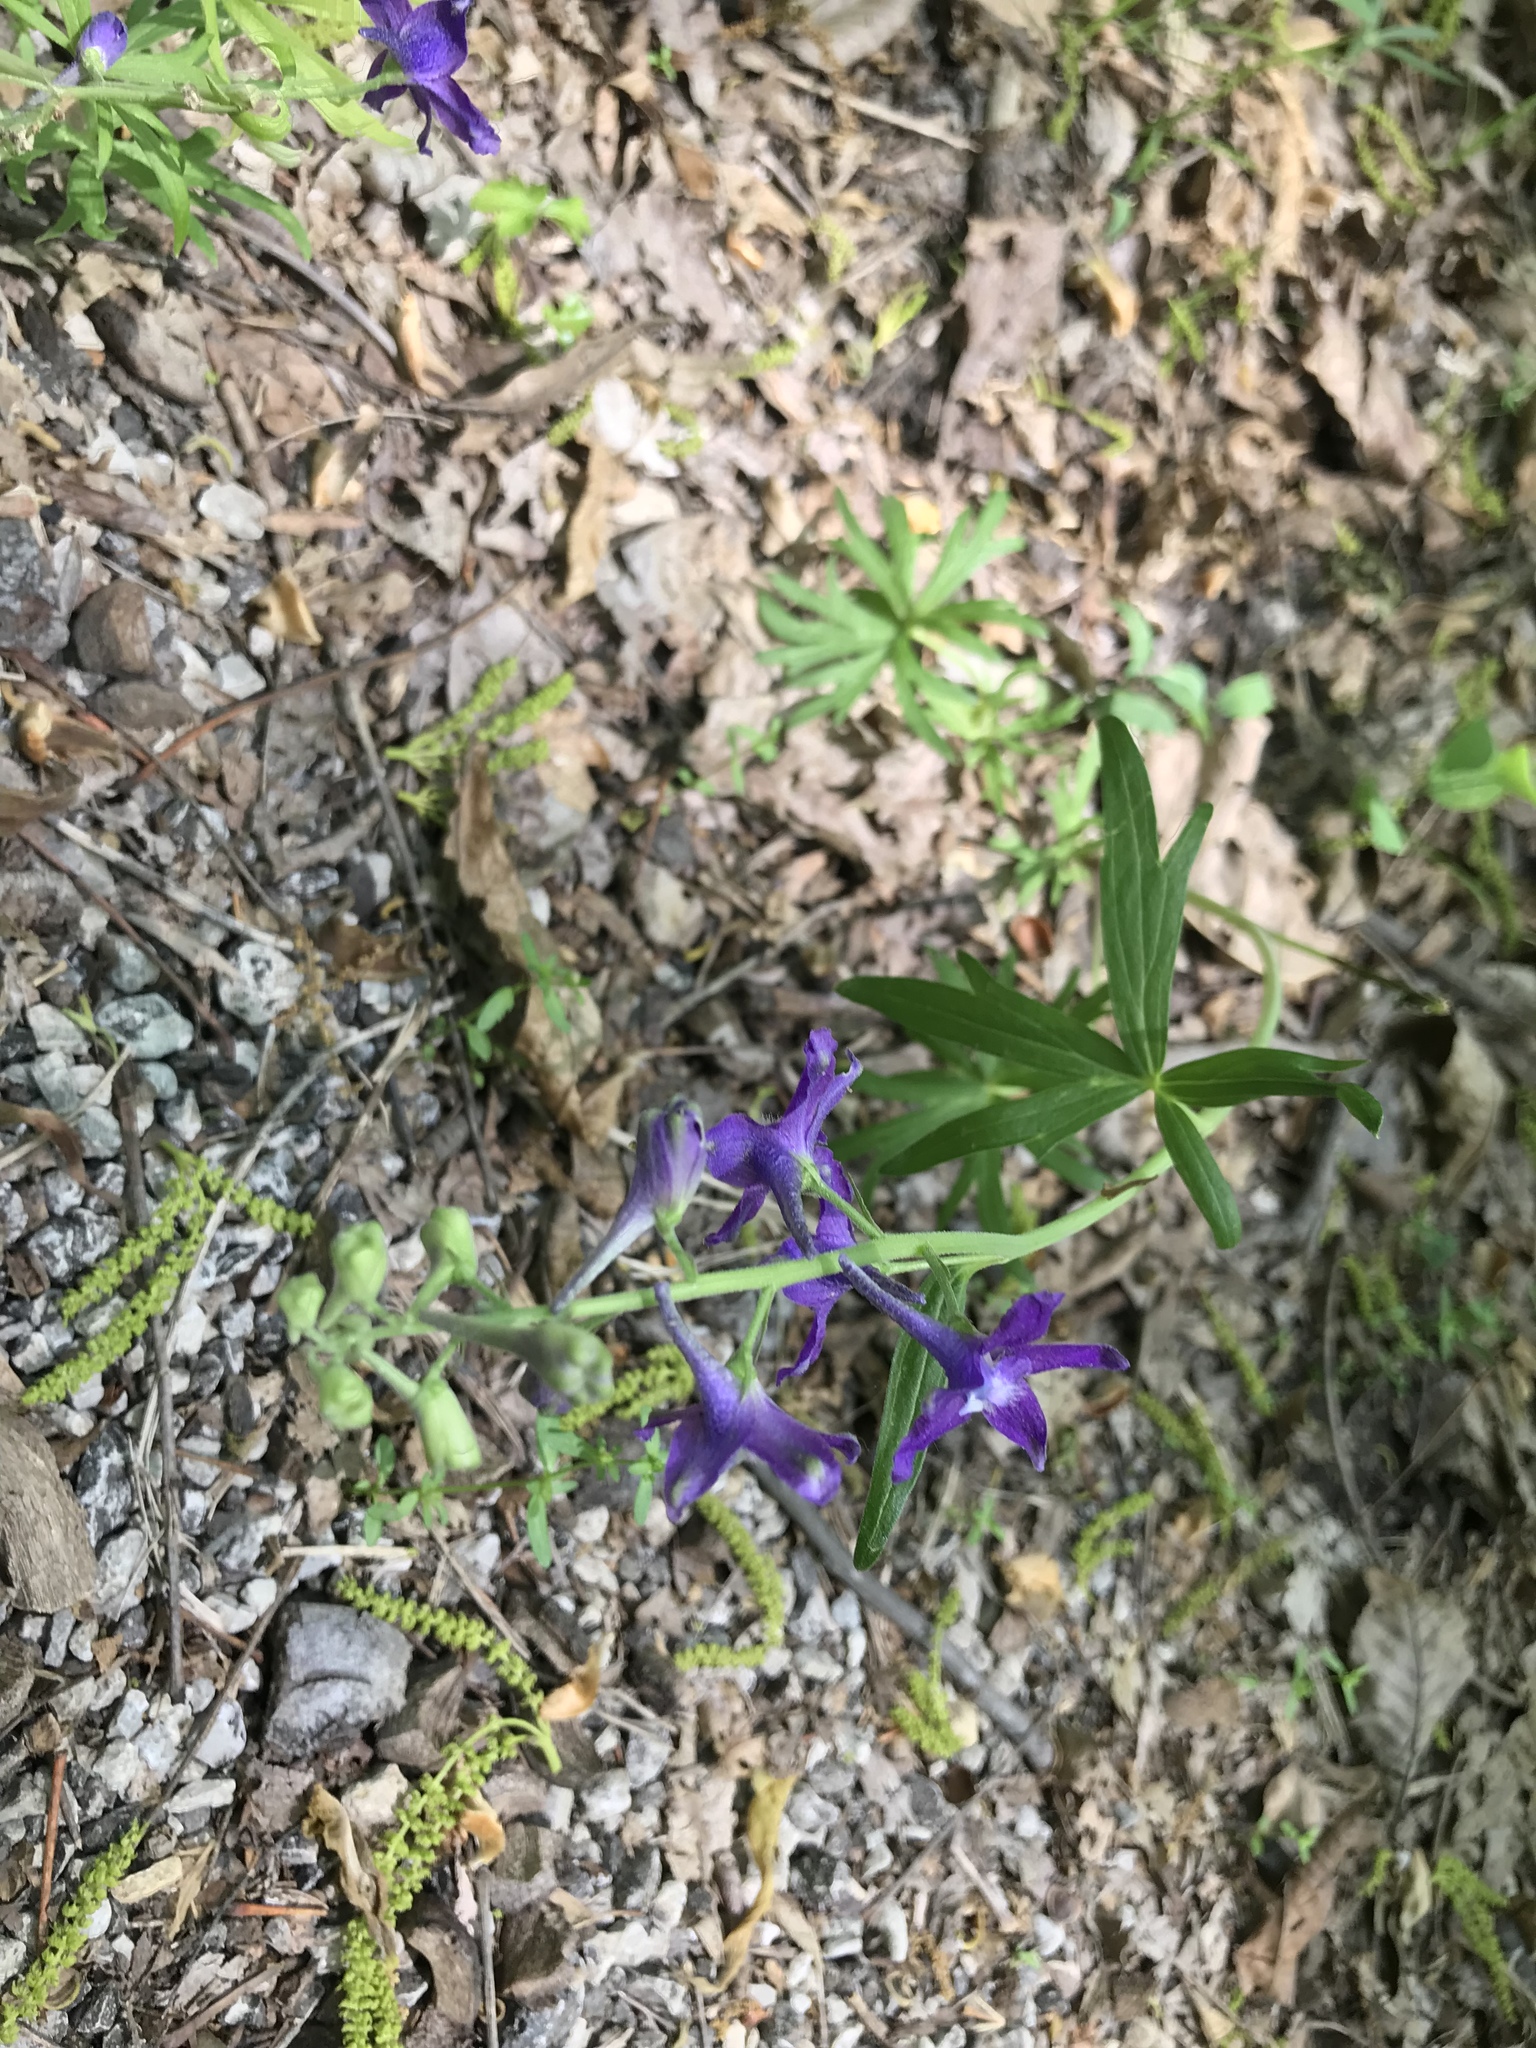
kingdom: Plantae
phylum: Tracheophyta
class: Magnoliopsida
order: Ranunculales
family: Ranunculaceae
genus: Delphinium
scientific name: Delphinium tricorne
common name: Dwarf larkspur
